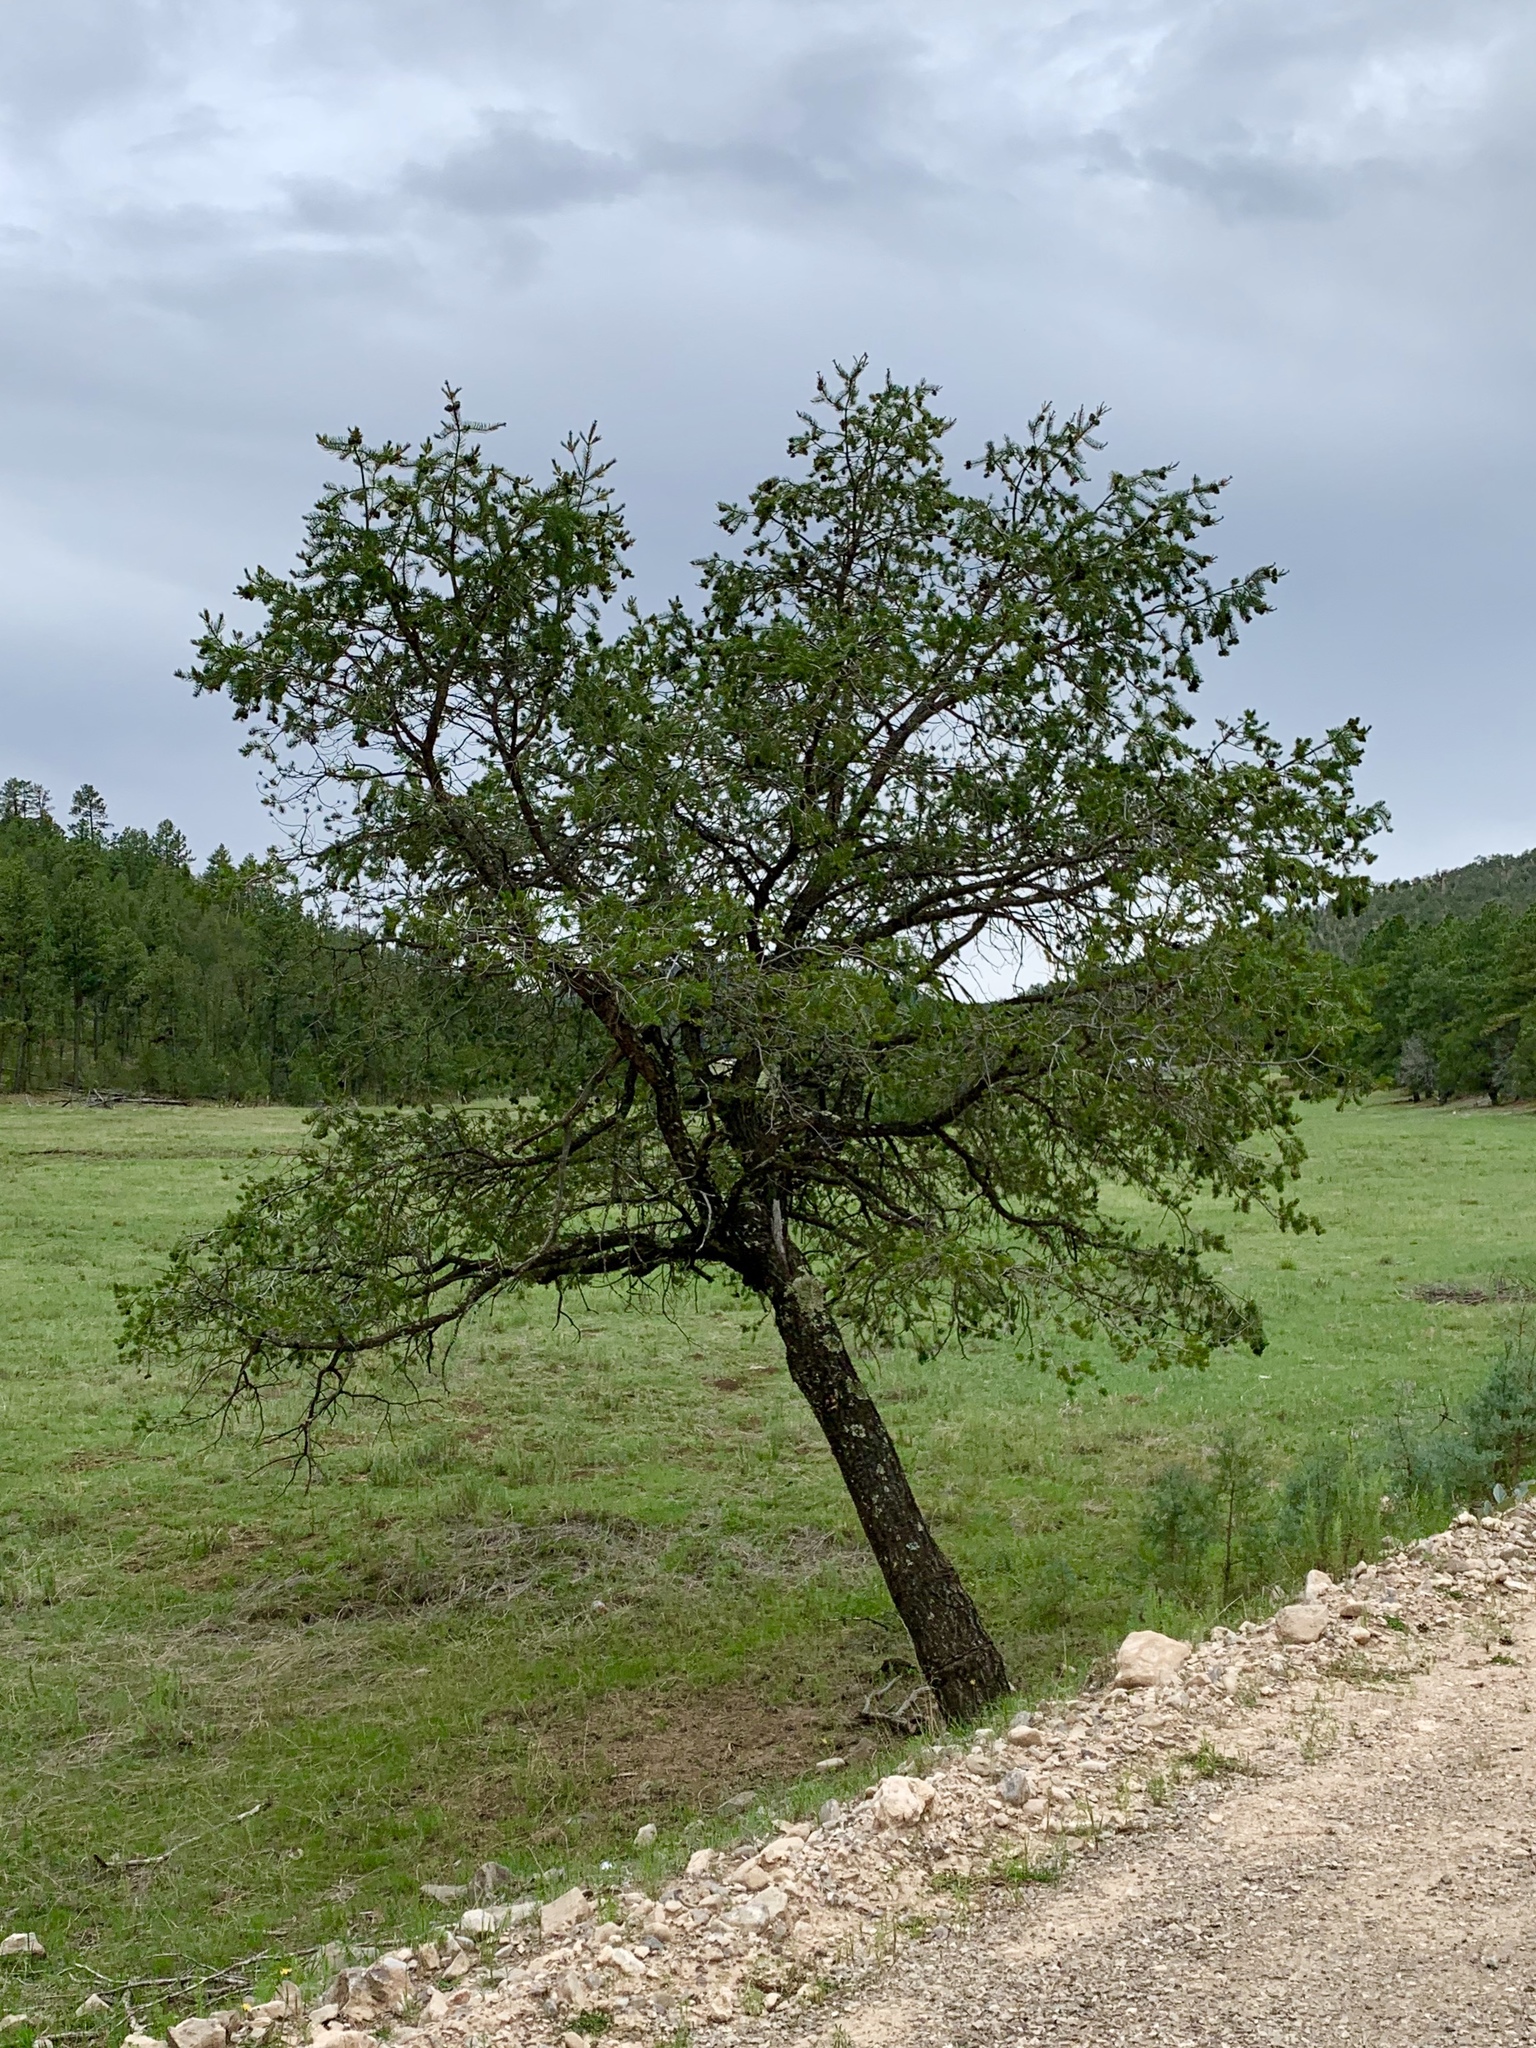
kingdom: Plantae
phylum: Tracheophyta
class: Pinopsida
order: Pinales
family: Pinaceae
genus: Pinus
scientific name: Pinus edulis
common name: Colorado pinyon
